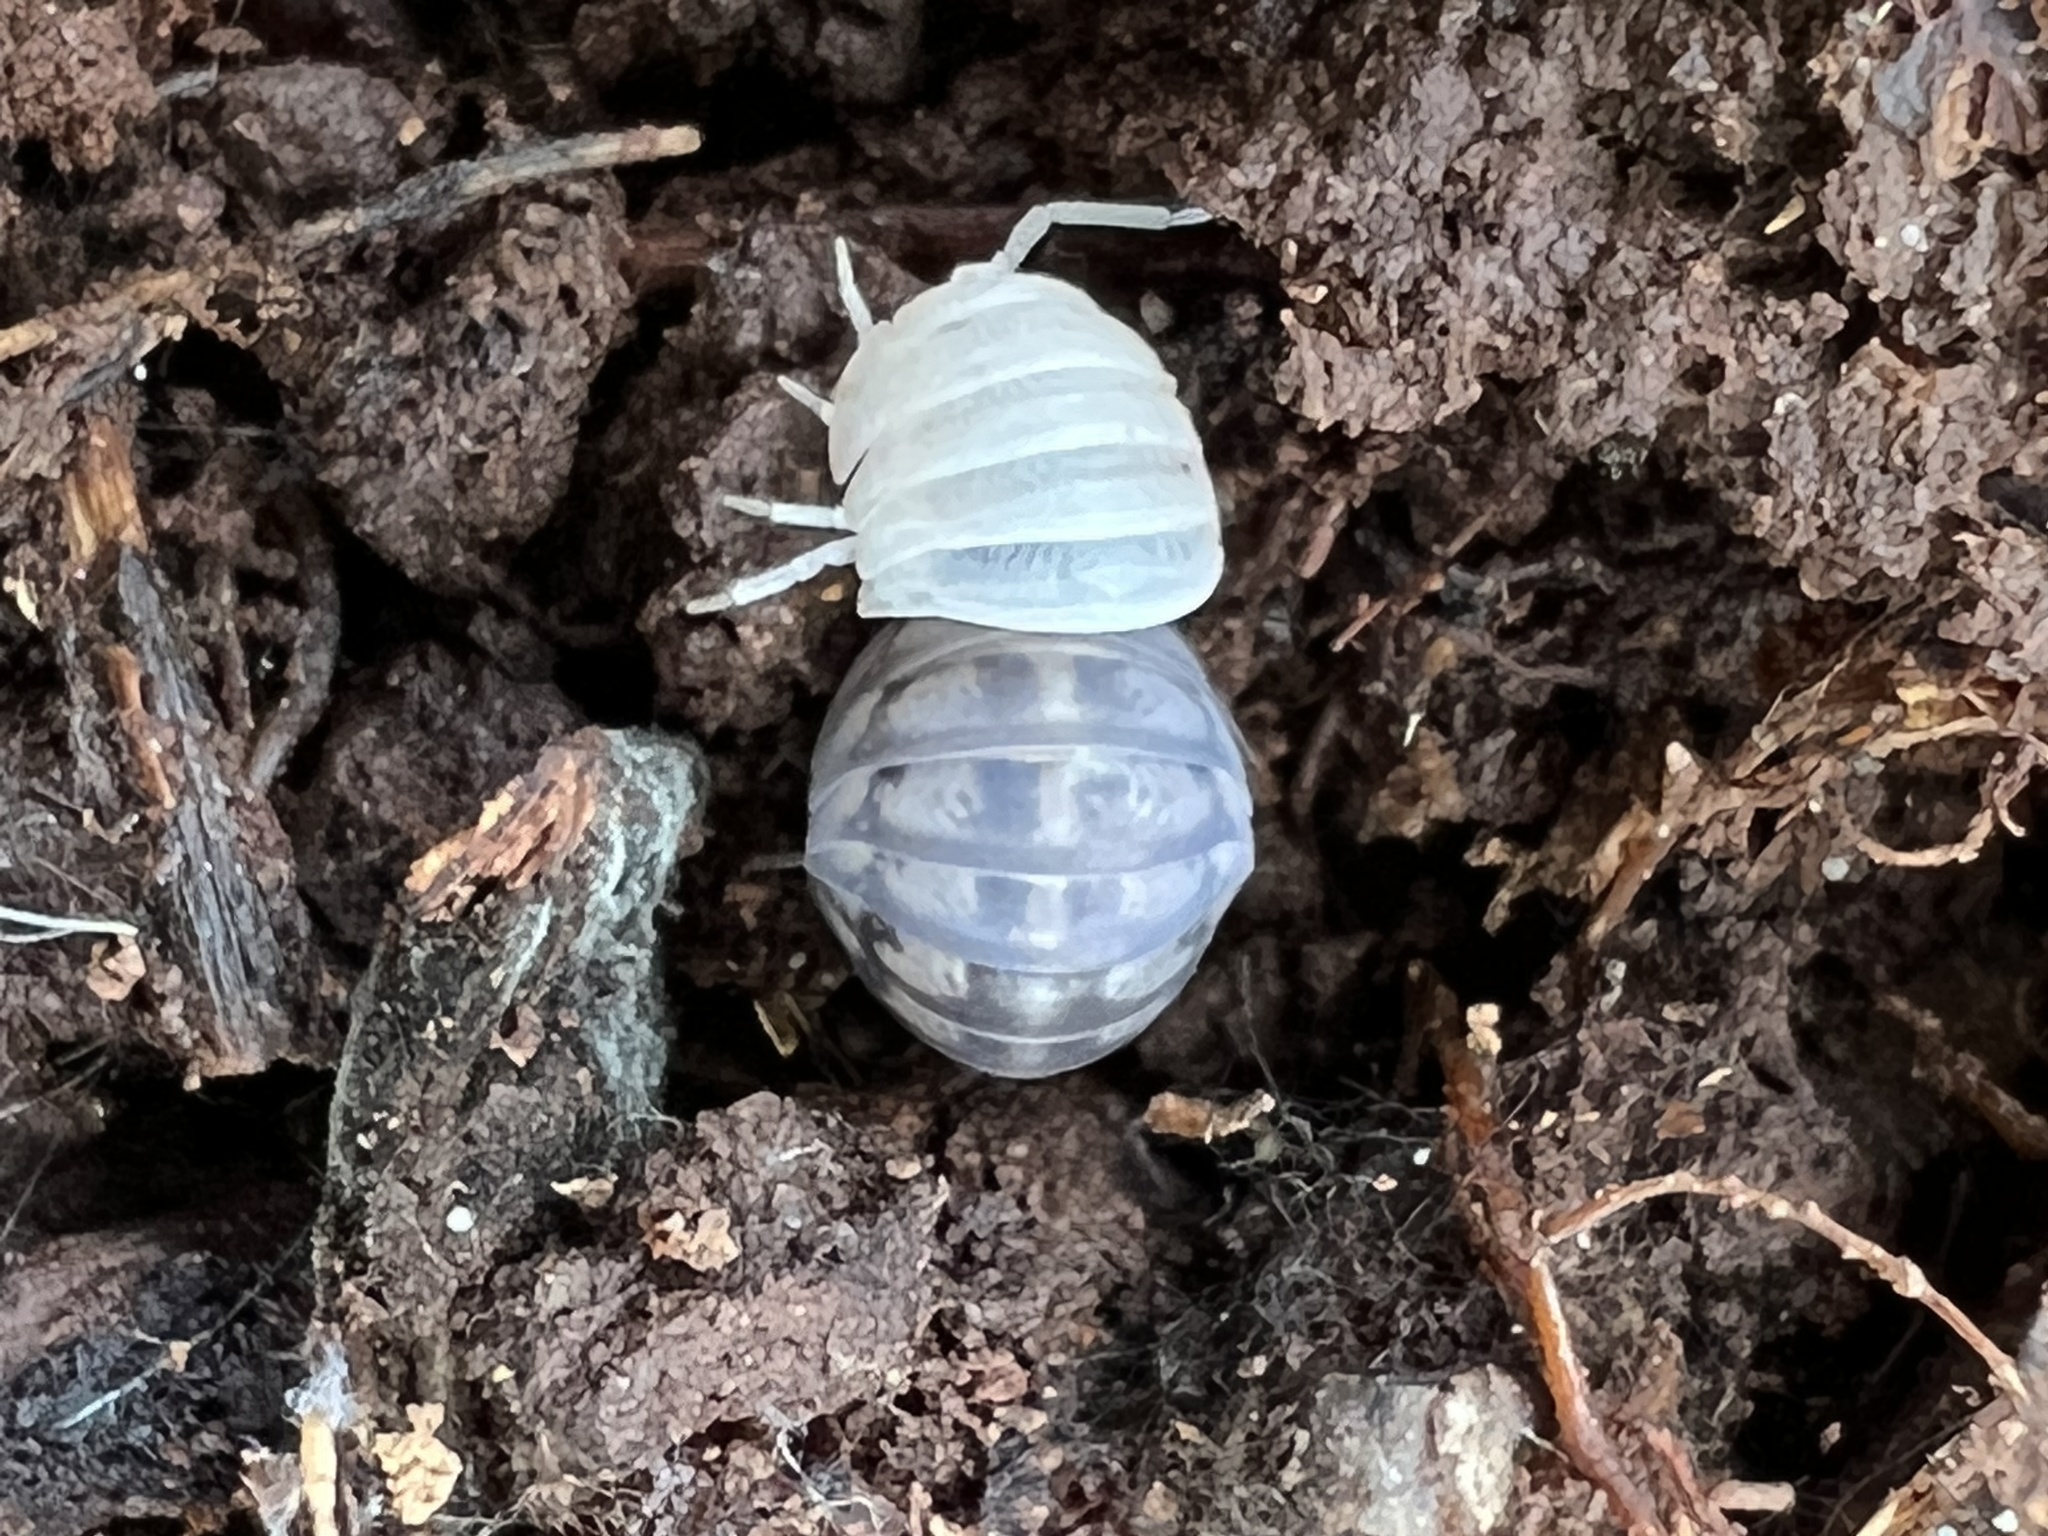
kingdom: Animalia
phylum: Arthropoda
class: Malacostraca
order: Isopoda
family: Armadillidiidae
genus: Armadillidium
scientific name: Armadillidium nasatum
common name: Isopod
